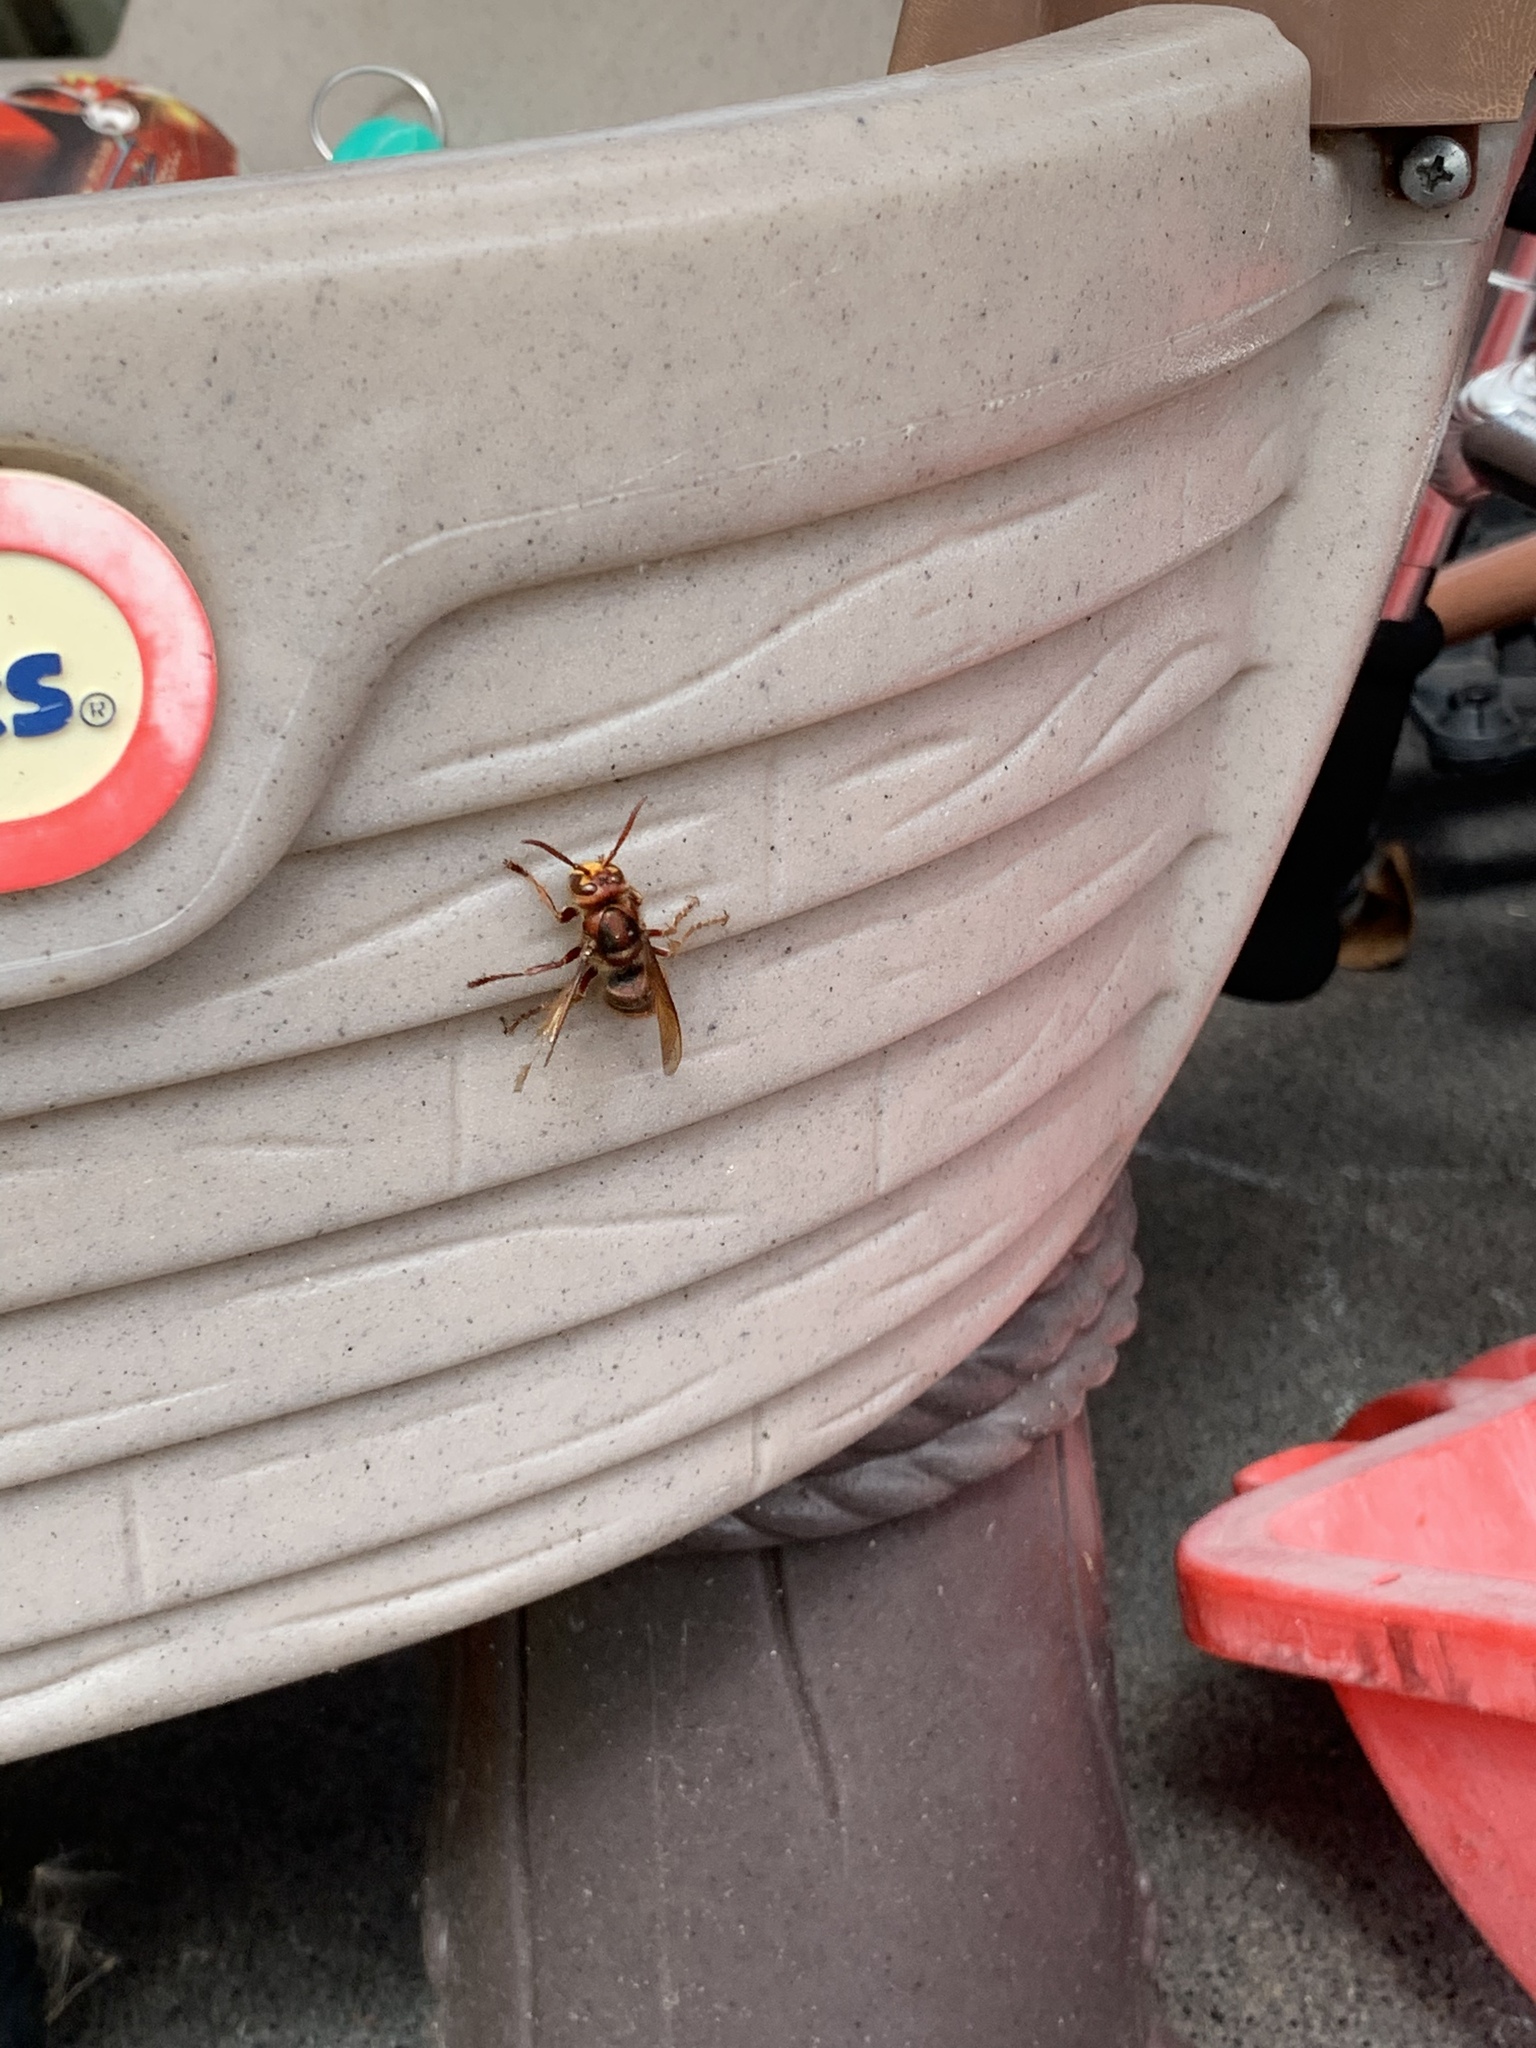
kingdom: Animalia
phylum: Arthropoda
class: Insecta
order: Hymenoptera
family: Vespidae
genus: Vespa
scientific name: Vespa crabro
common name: Hornet
